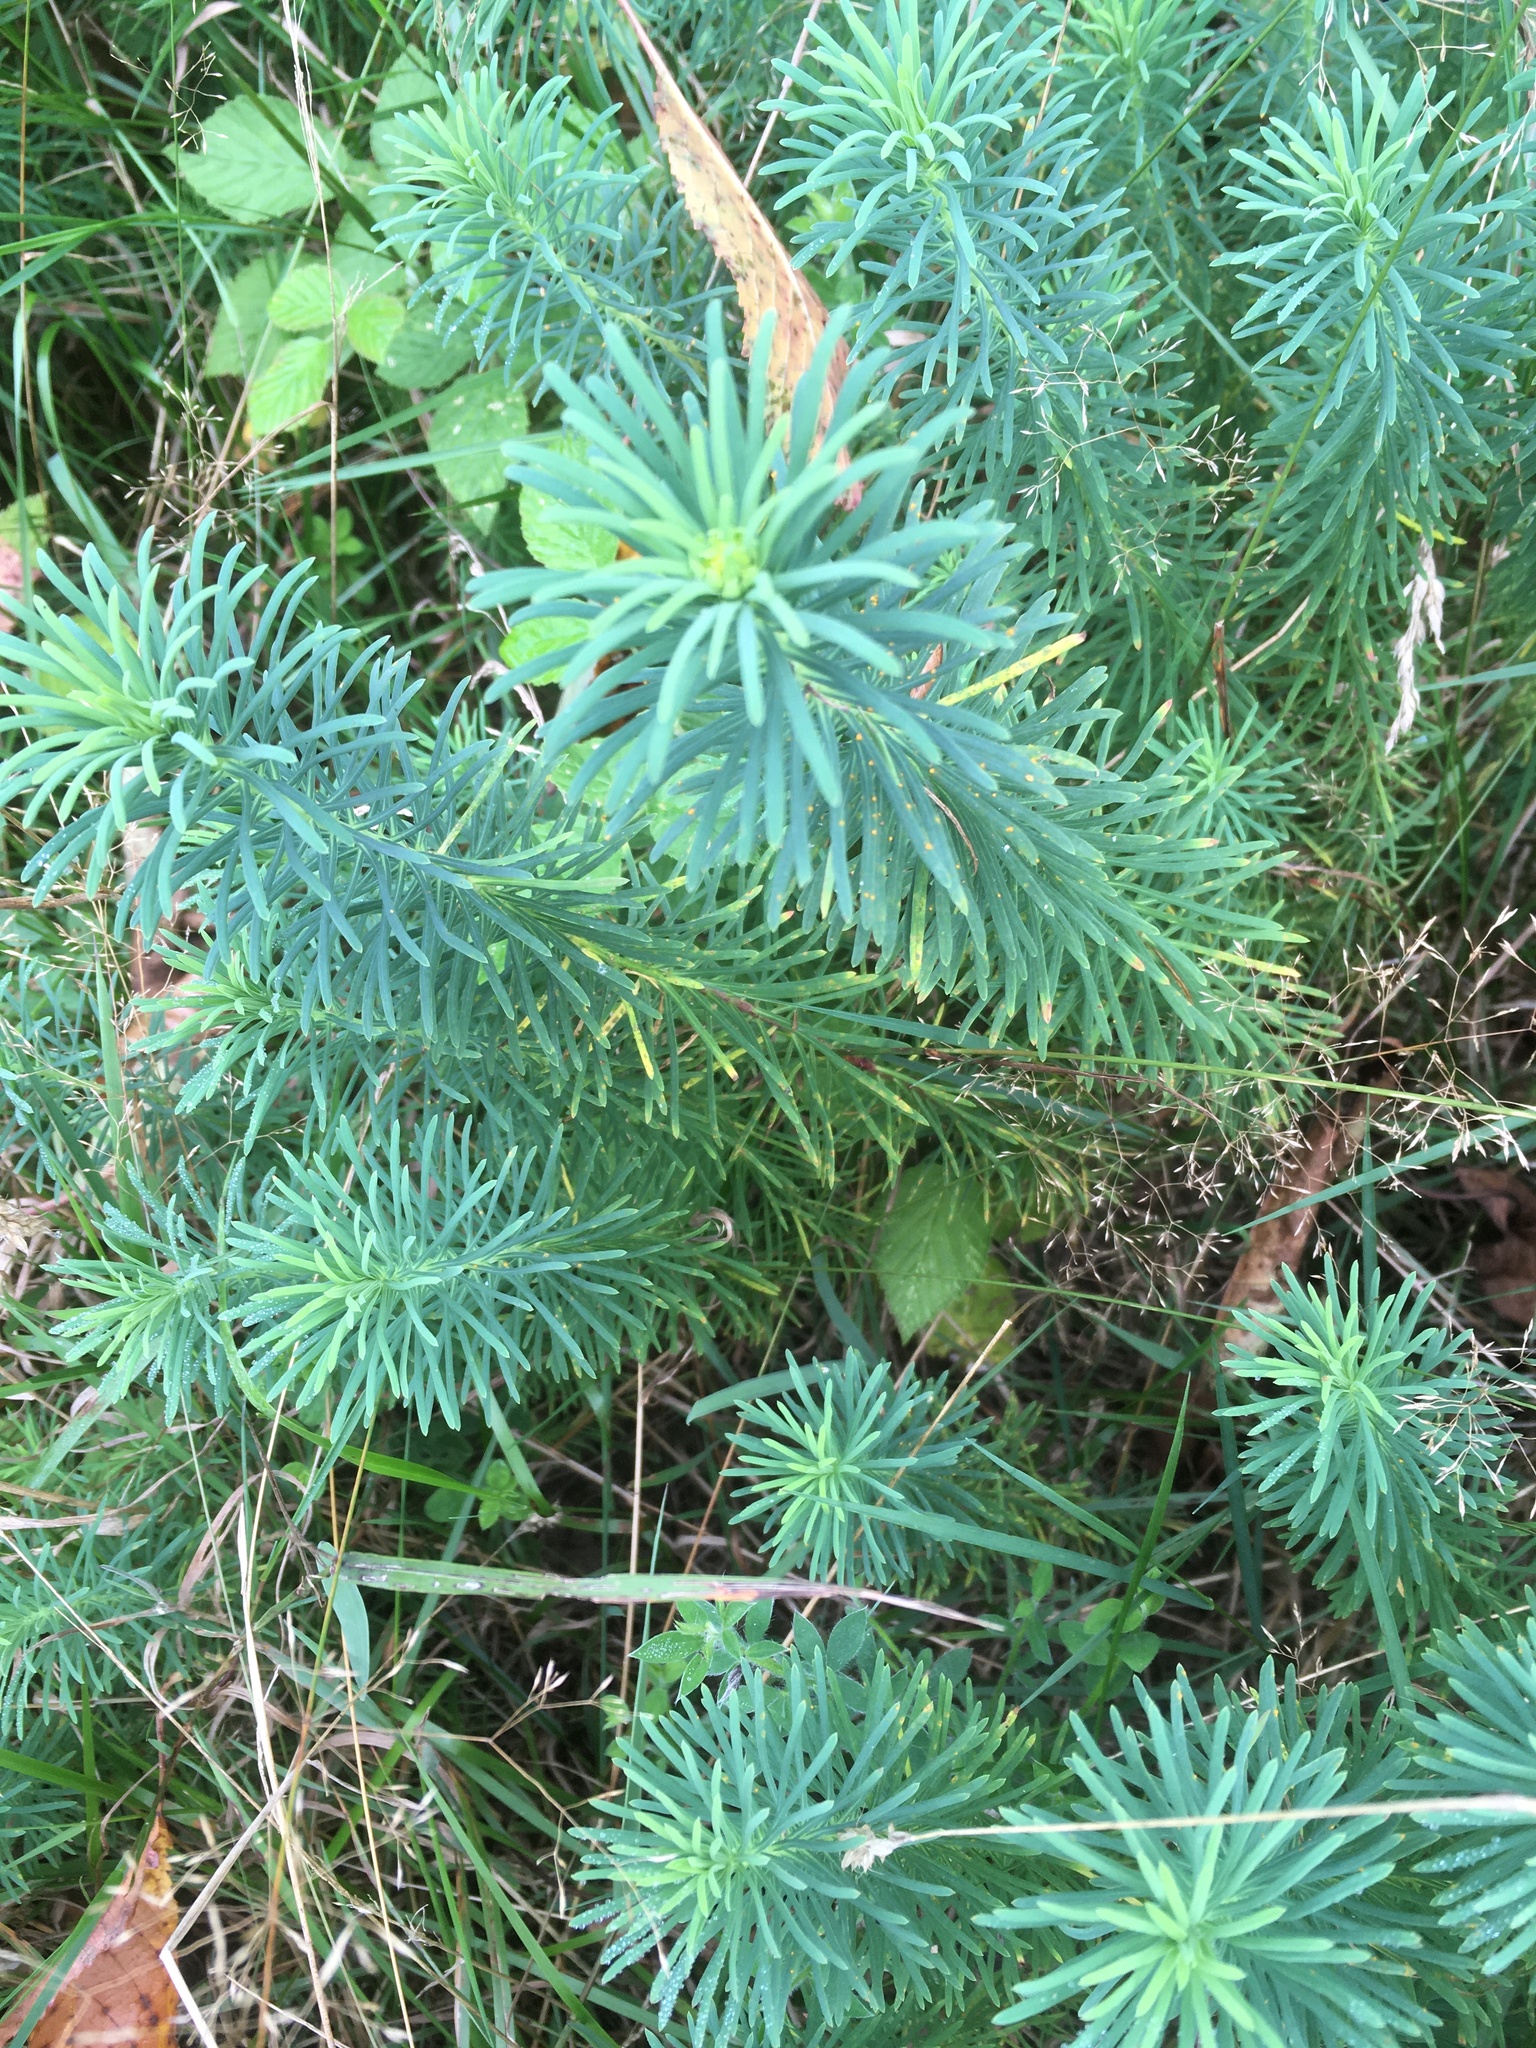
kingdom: Plantae
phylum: Tracheophyta
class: Magnoliopsida
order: Malpighiales
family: Euphorbiaceae
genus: Euphorbia
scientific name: Euphorbia cyparissias
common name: Cypress spurge
